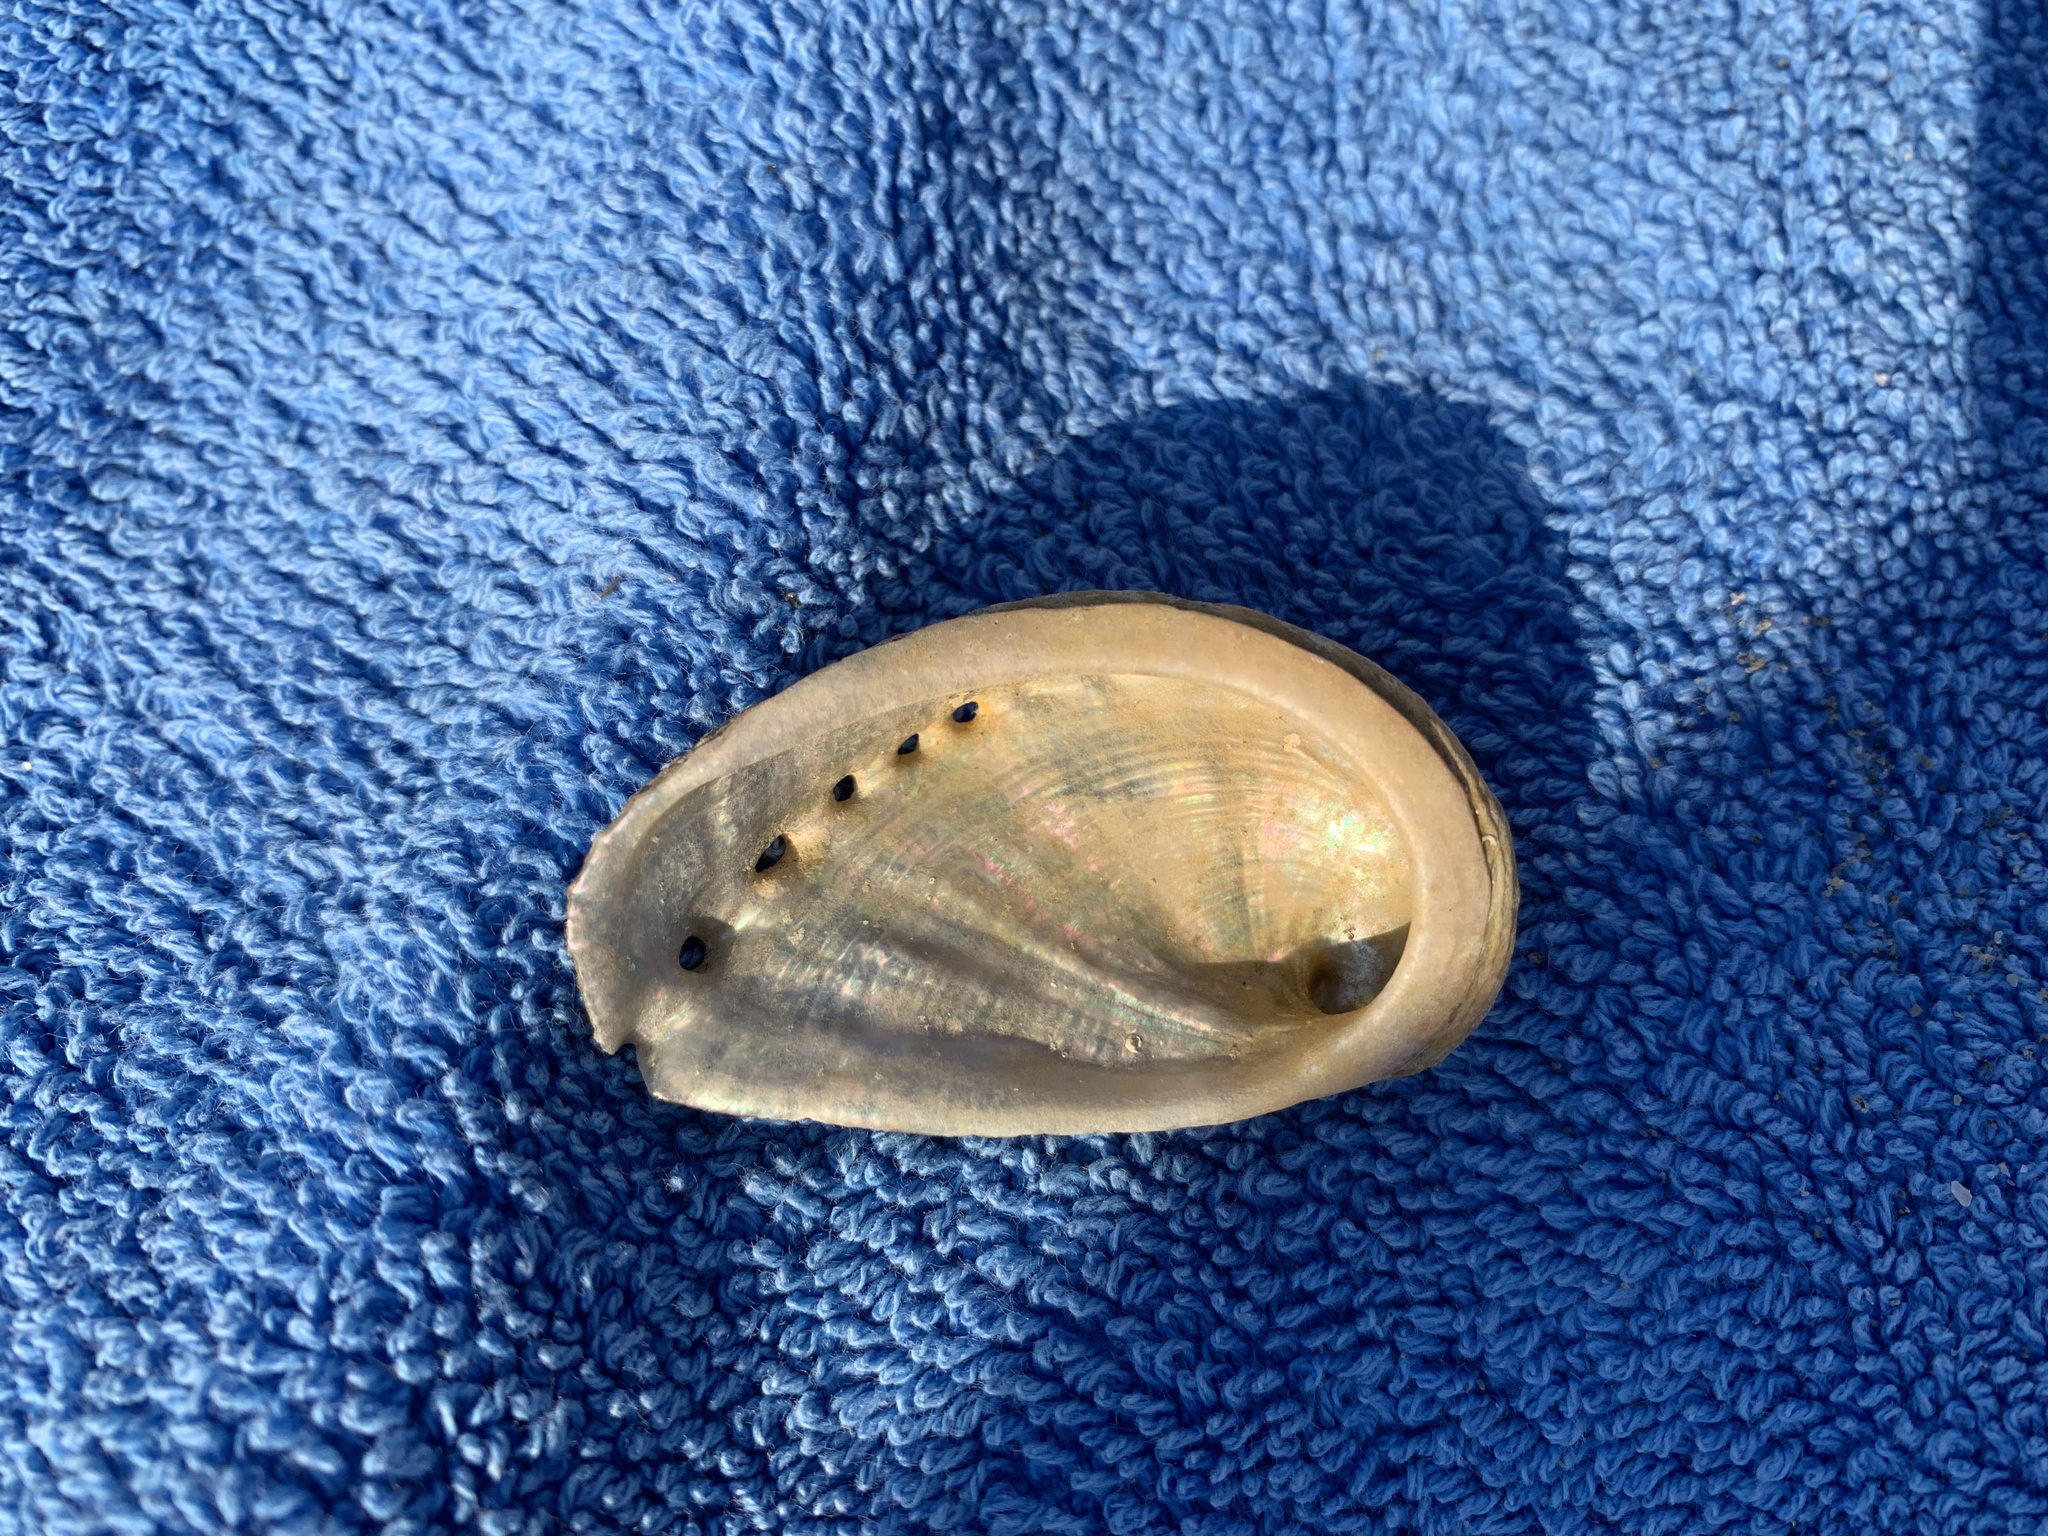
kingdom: Animalia
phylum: Mollusca
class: Gastropoda
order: Lepetellida
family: Haliotidae
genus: Haliotis
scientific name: Haliotis tuberculata
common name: Green ormer
